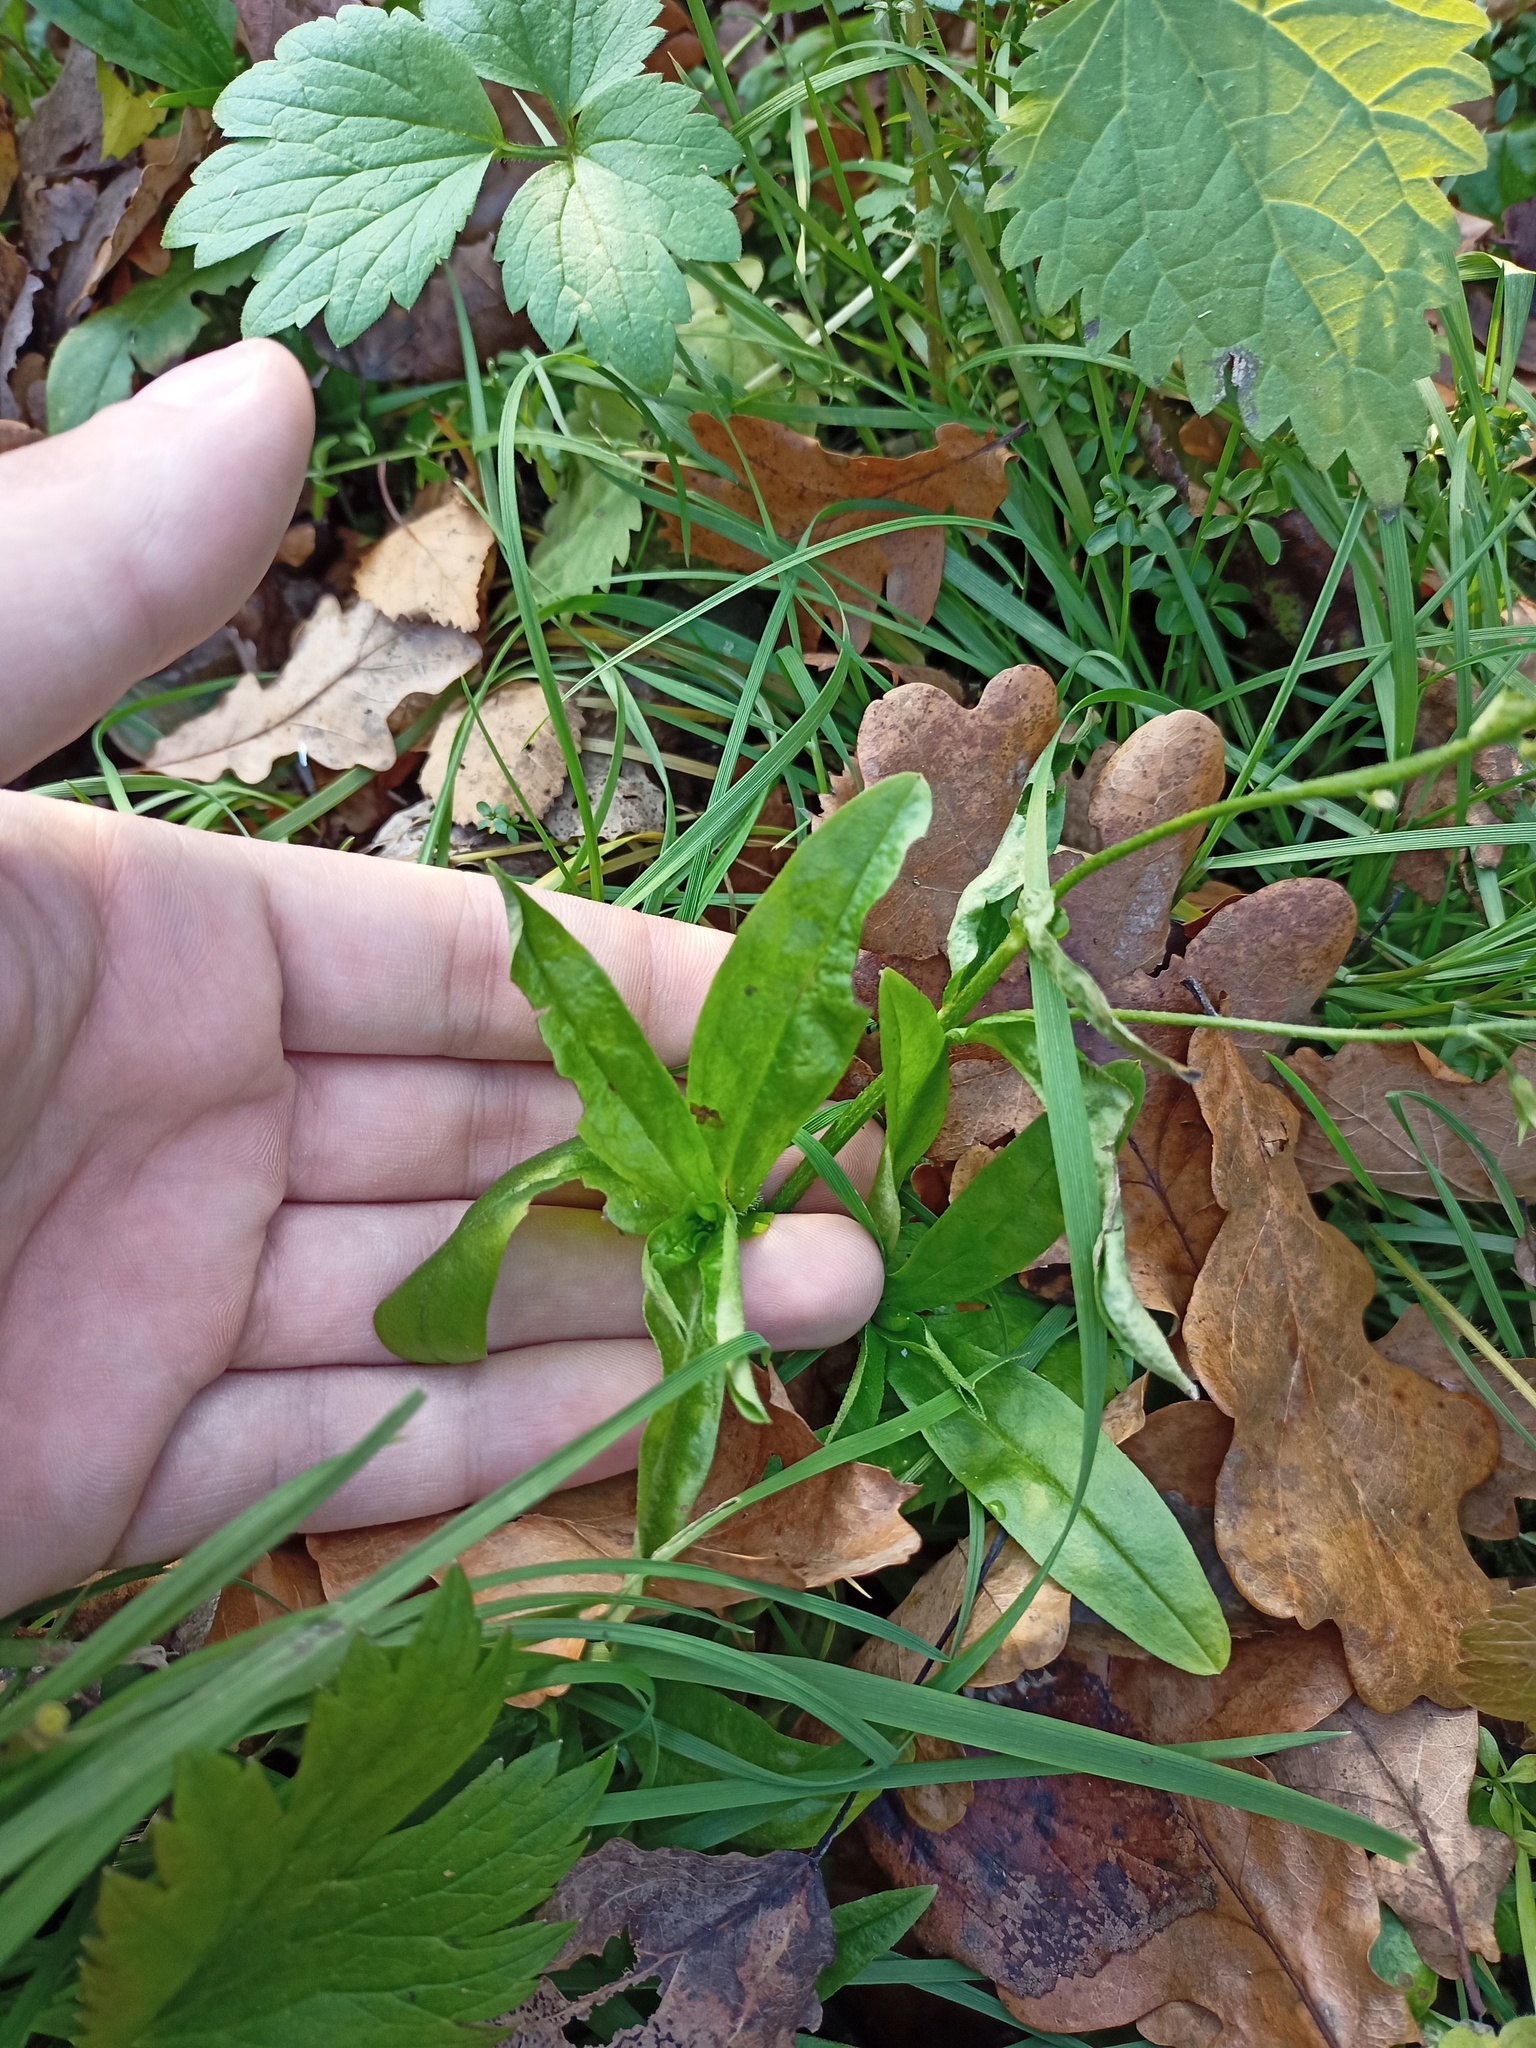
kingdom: Plantae
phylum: Tracheophyta
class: Magnoliopsida
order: Boraginales
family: Boraginaceae
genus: Myosotis
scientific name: Myosotis scorpioides
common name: Water forget-me-not
